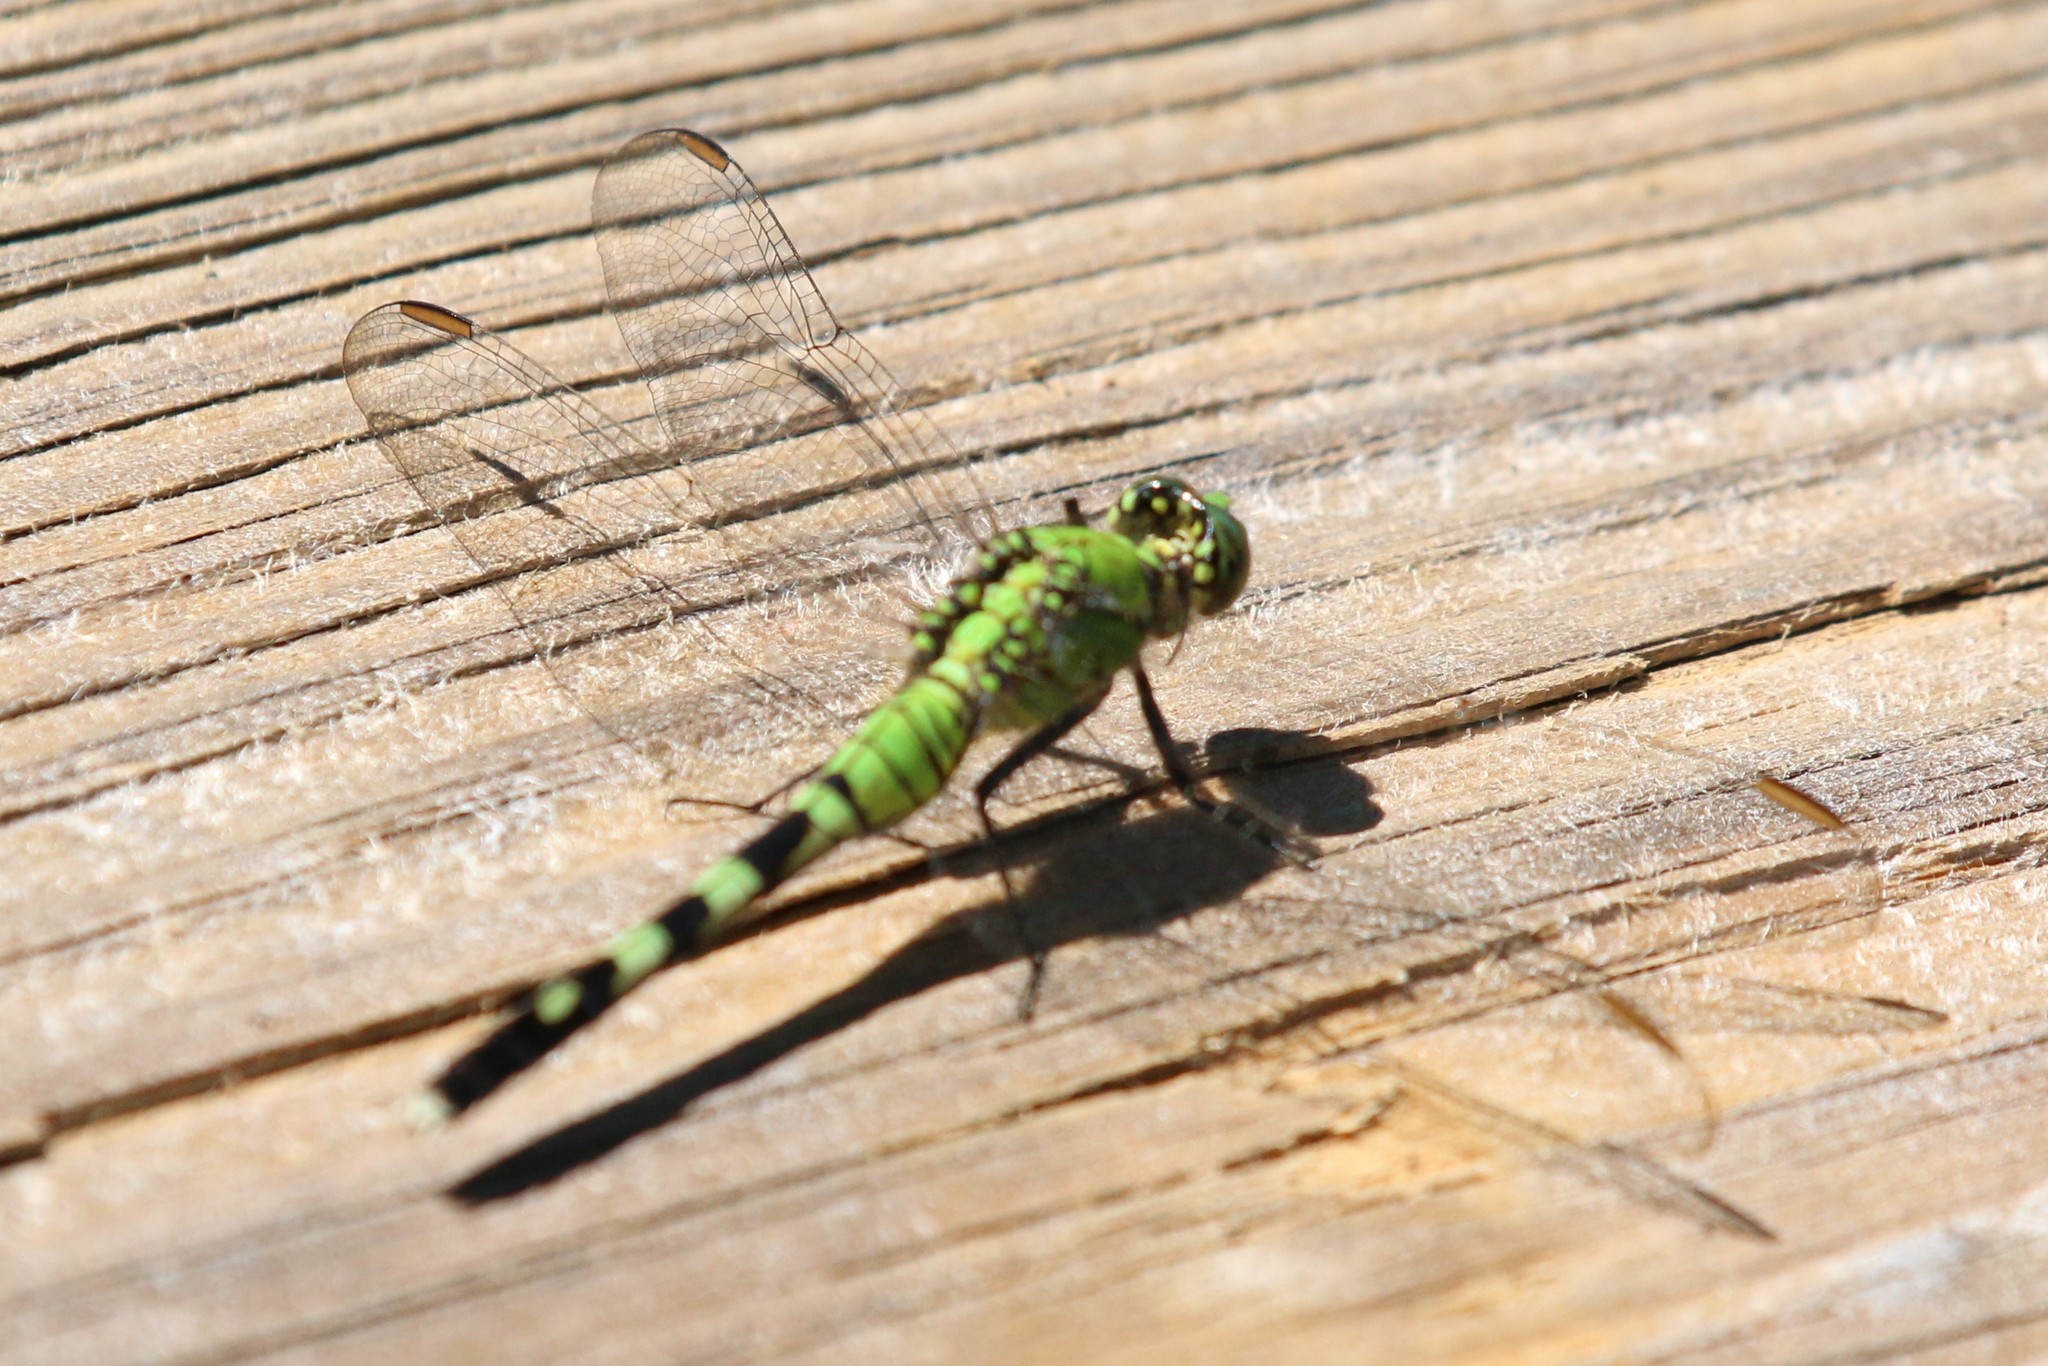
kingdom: Animalia
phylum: Arthropoda
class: Insecta
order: Odonata
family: Libellulidae
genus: Erythemis
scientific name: Erythemis simplicicollis
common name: Eastern pondhawk
